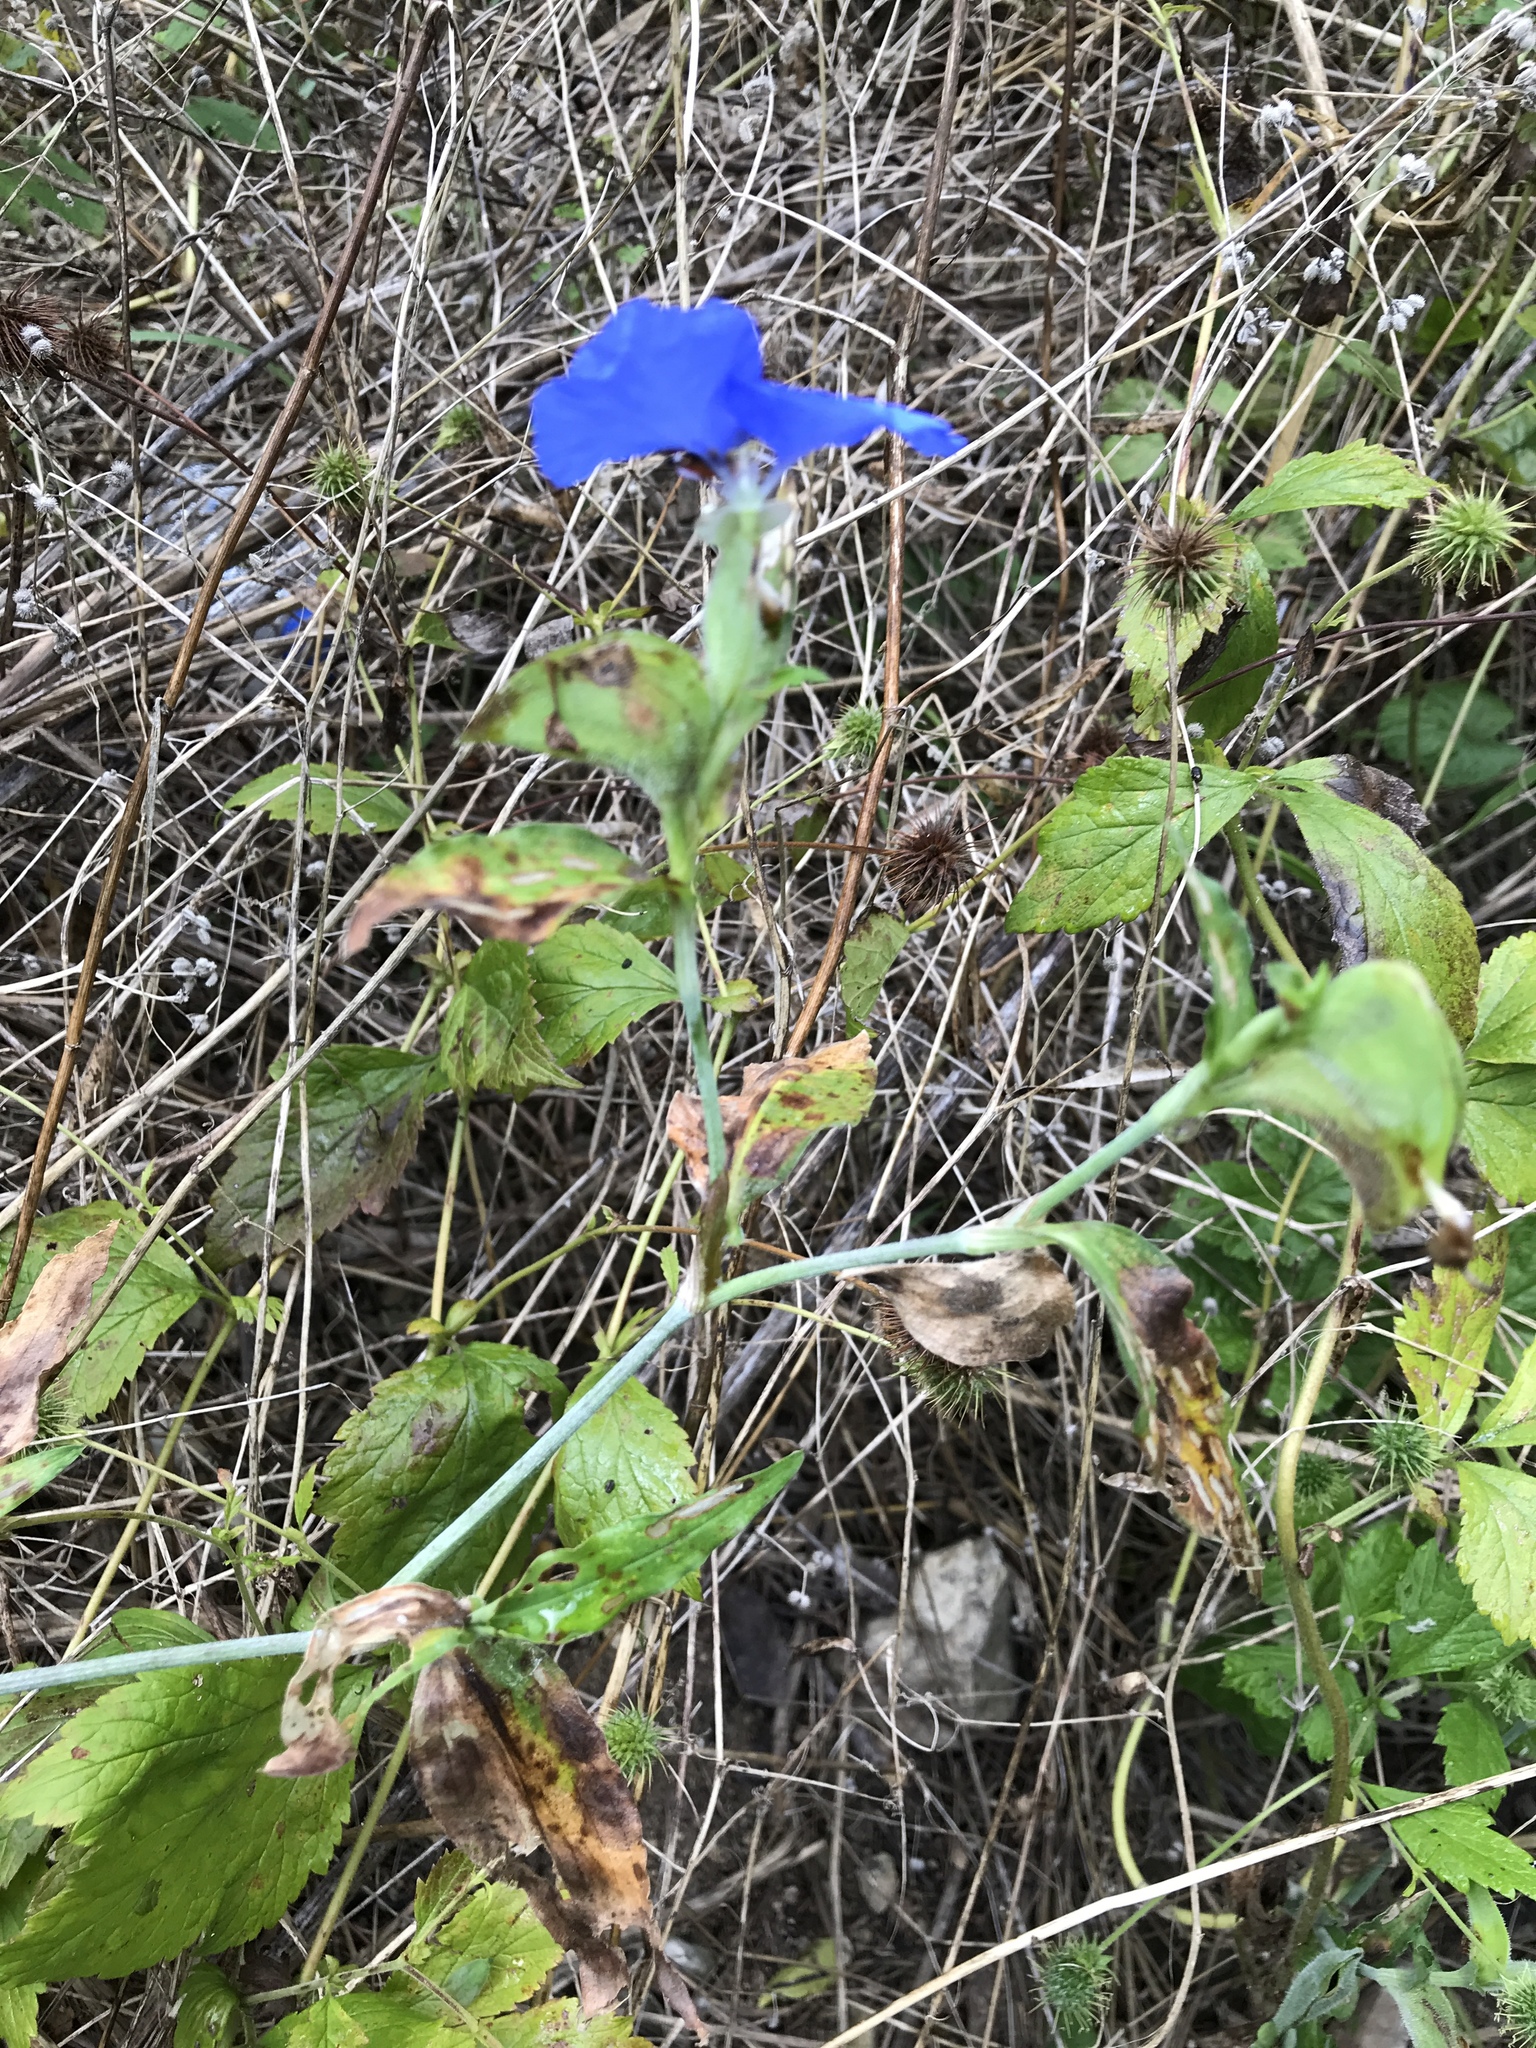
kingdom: Plantae
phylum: Tracheophyta
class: Liliopsida
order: Commelinales
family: Commelinaceae
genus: Commelina
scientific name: Commelina erecta
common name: Blousel blommetjie
